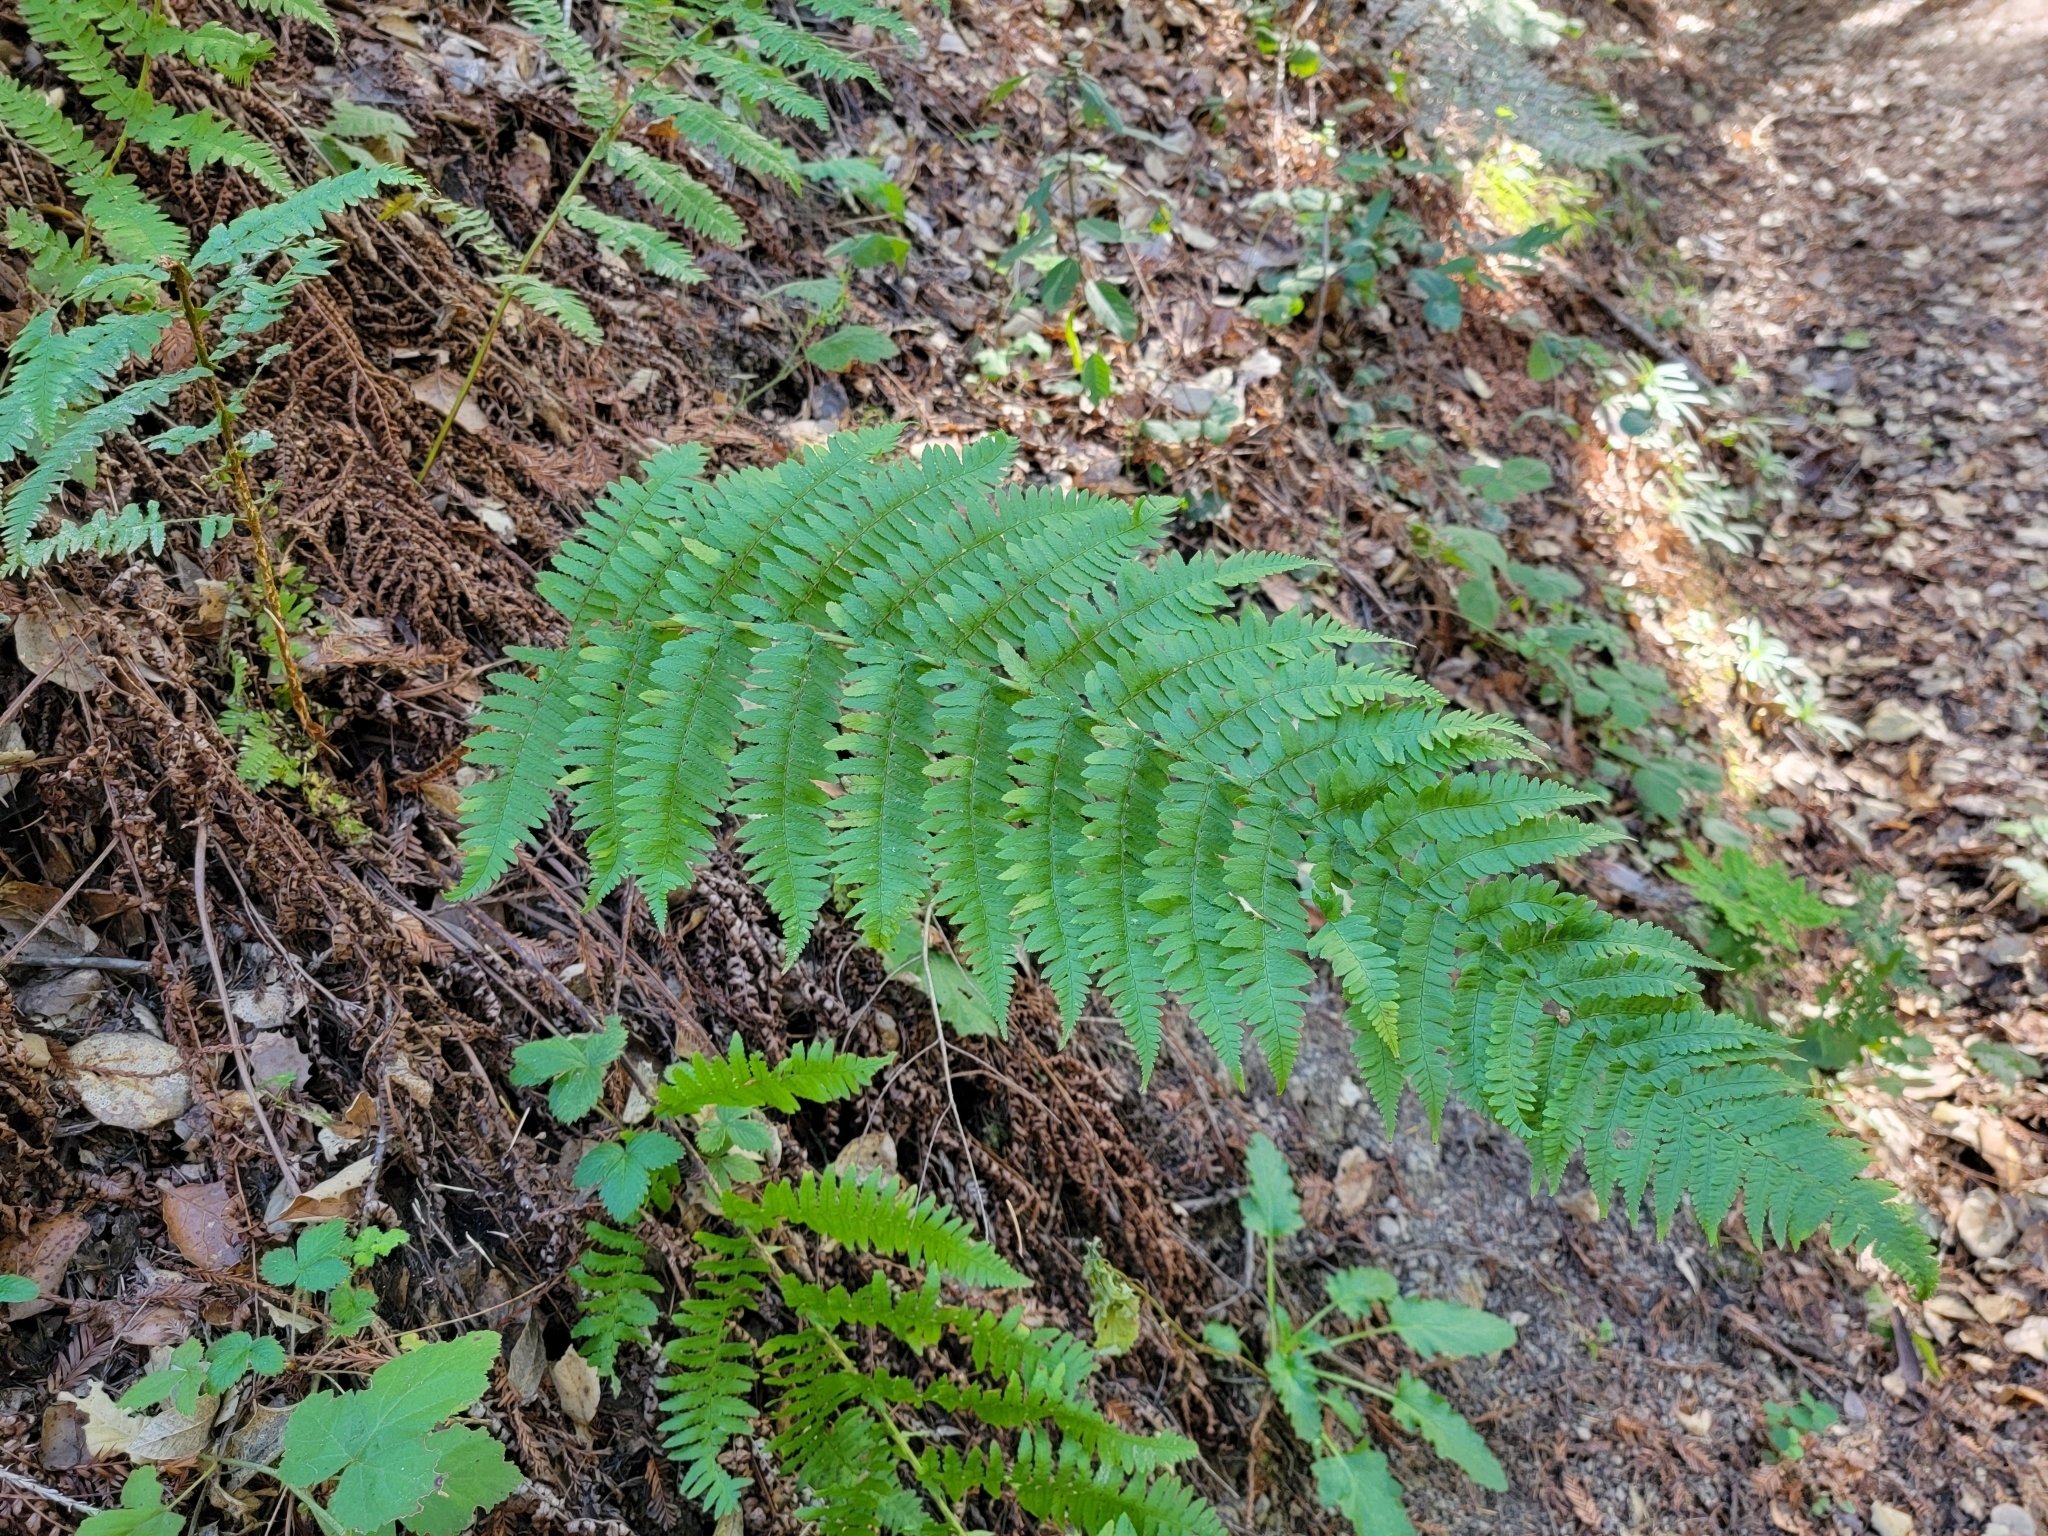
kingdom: Plantae
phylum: Tracheophyta
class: Polypodiopsida
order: Polypodiales
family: Dryopteridaceae
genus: Dryopteris
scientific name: Dryopteris arguta
